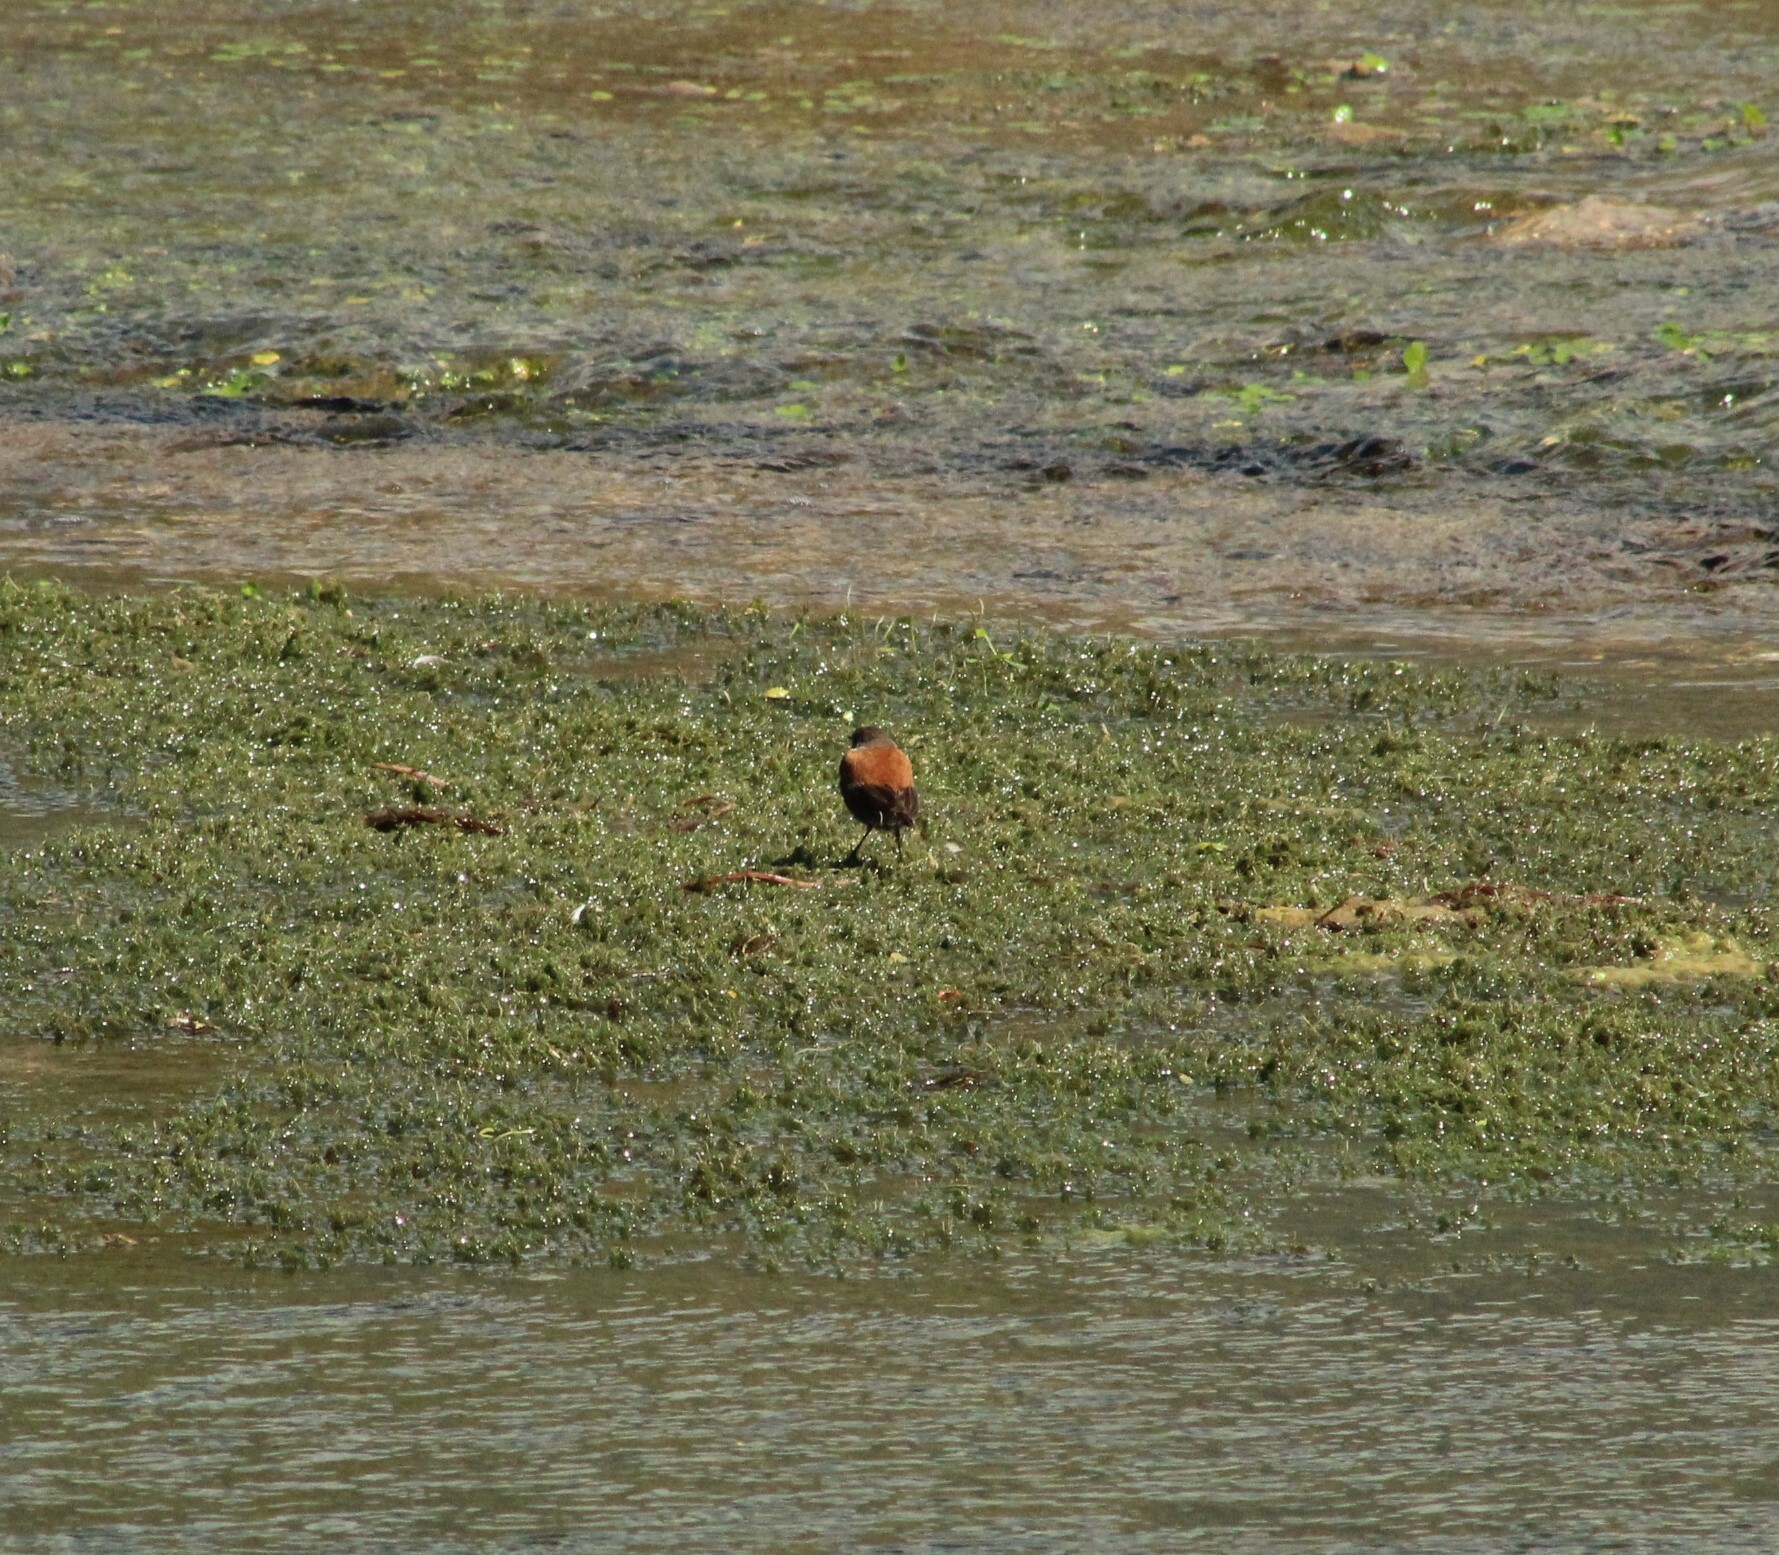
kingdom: Animalia
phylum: Chordata
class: Aves
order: Passeriformes
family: Tyrannidae
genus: Lessonia
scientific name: Lessonia rufa
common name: Austral negrito
